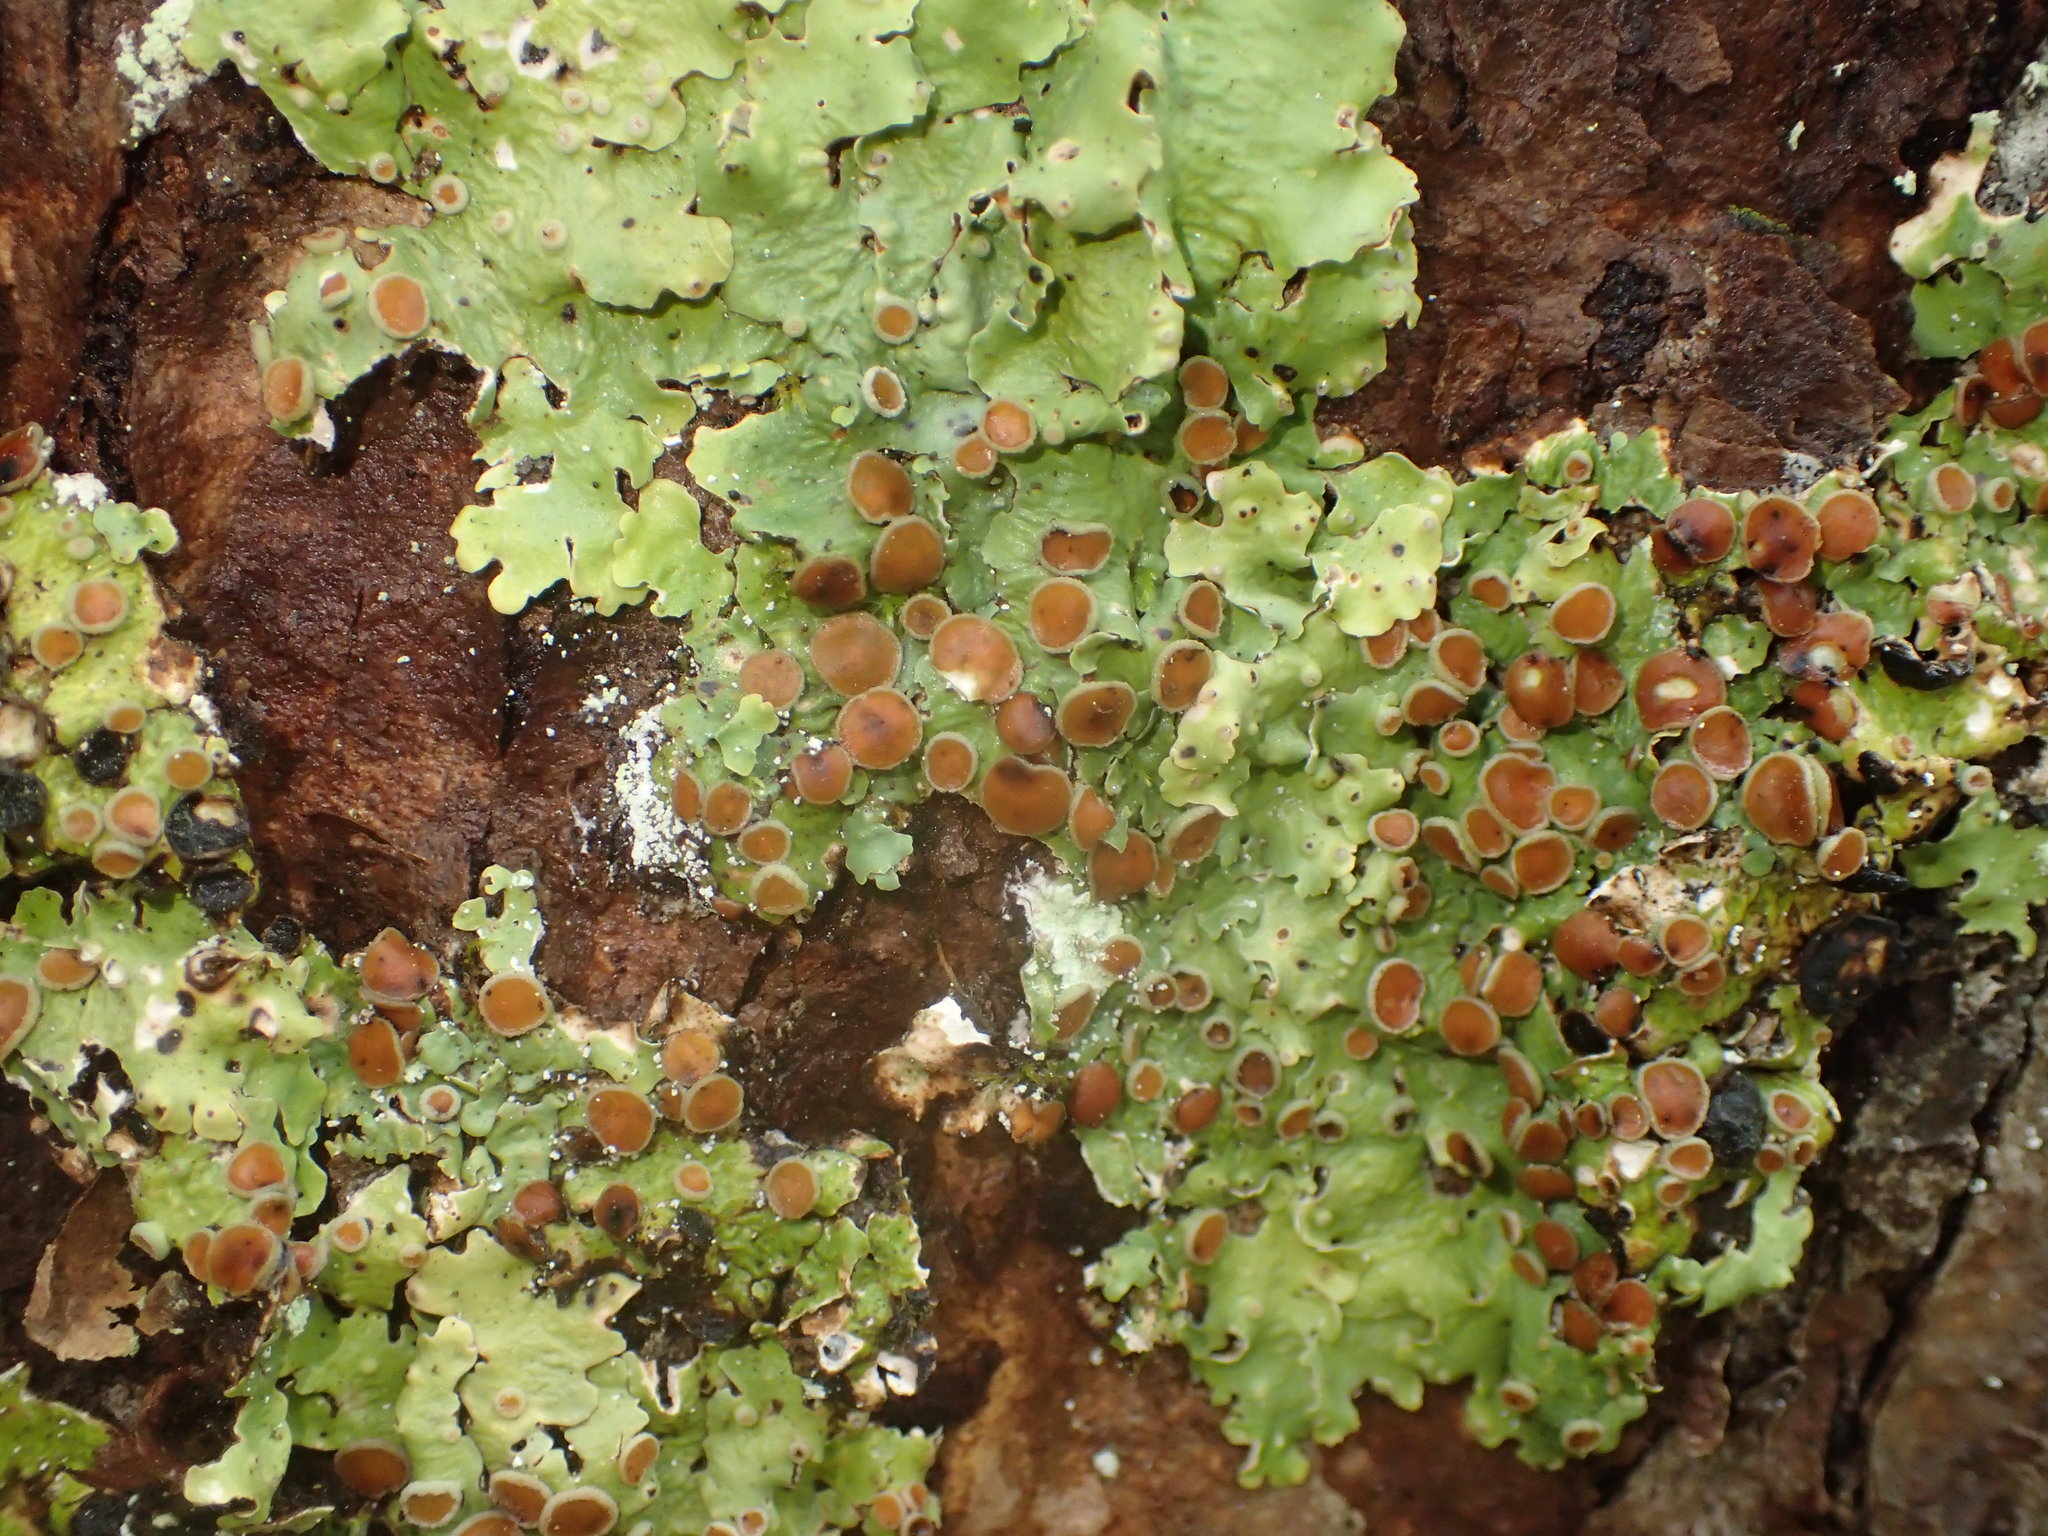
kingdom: Fungi
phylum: Ascomycota
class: Lecanoromycetes
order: Peltigerales
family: Lobariaceae
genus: Ricasolia
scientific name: Ricasolia quercizans
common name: Smooth lungwort
